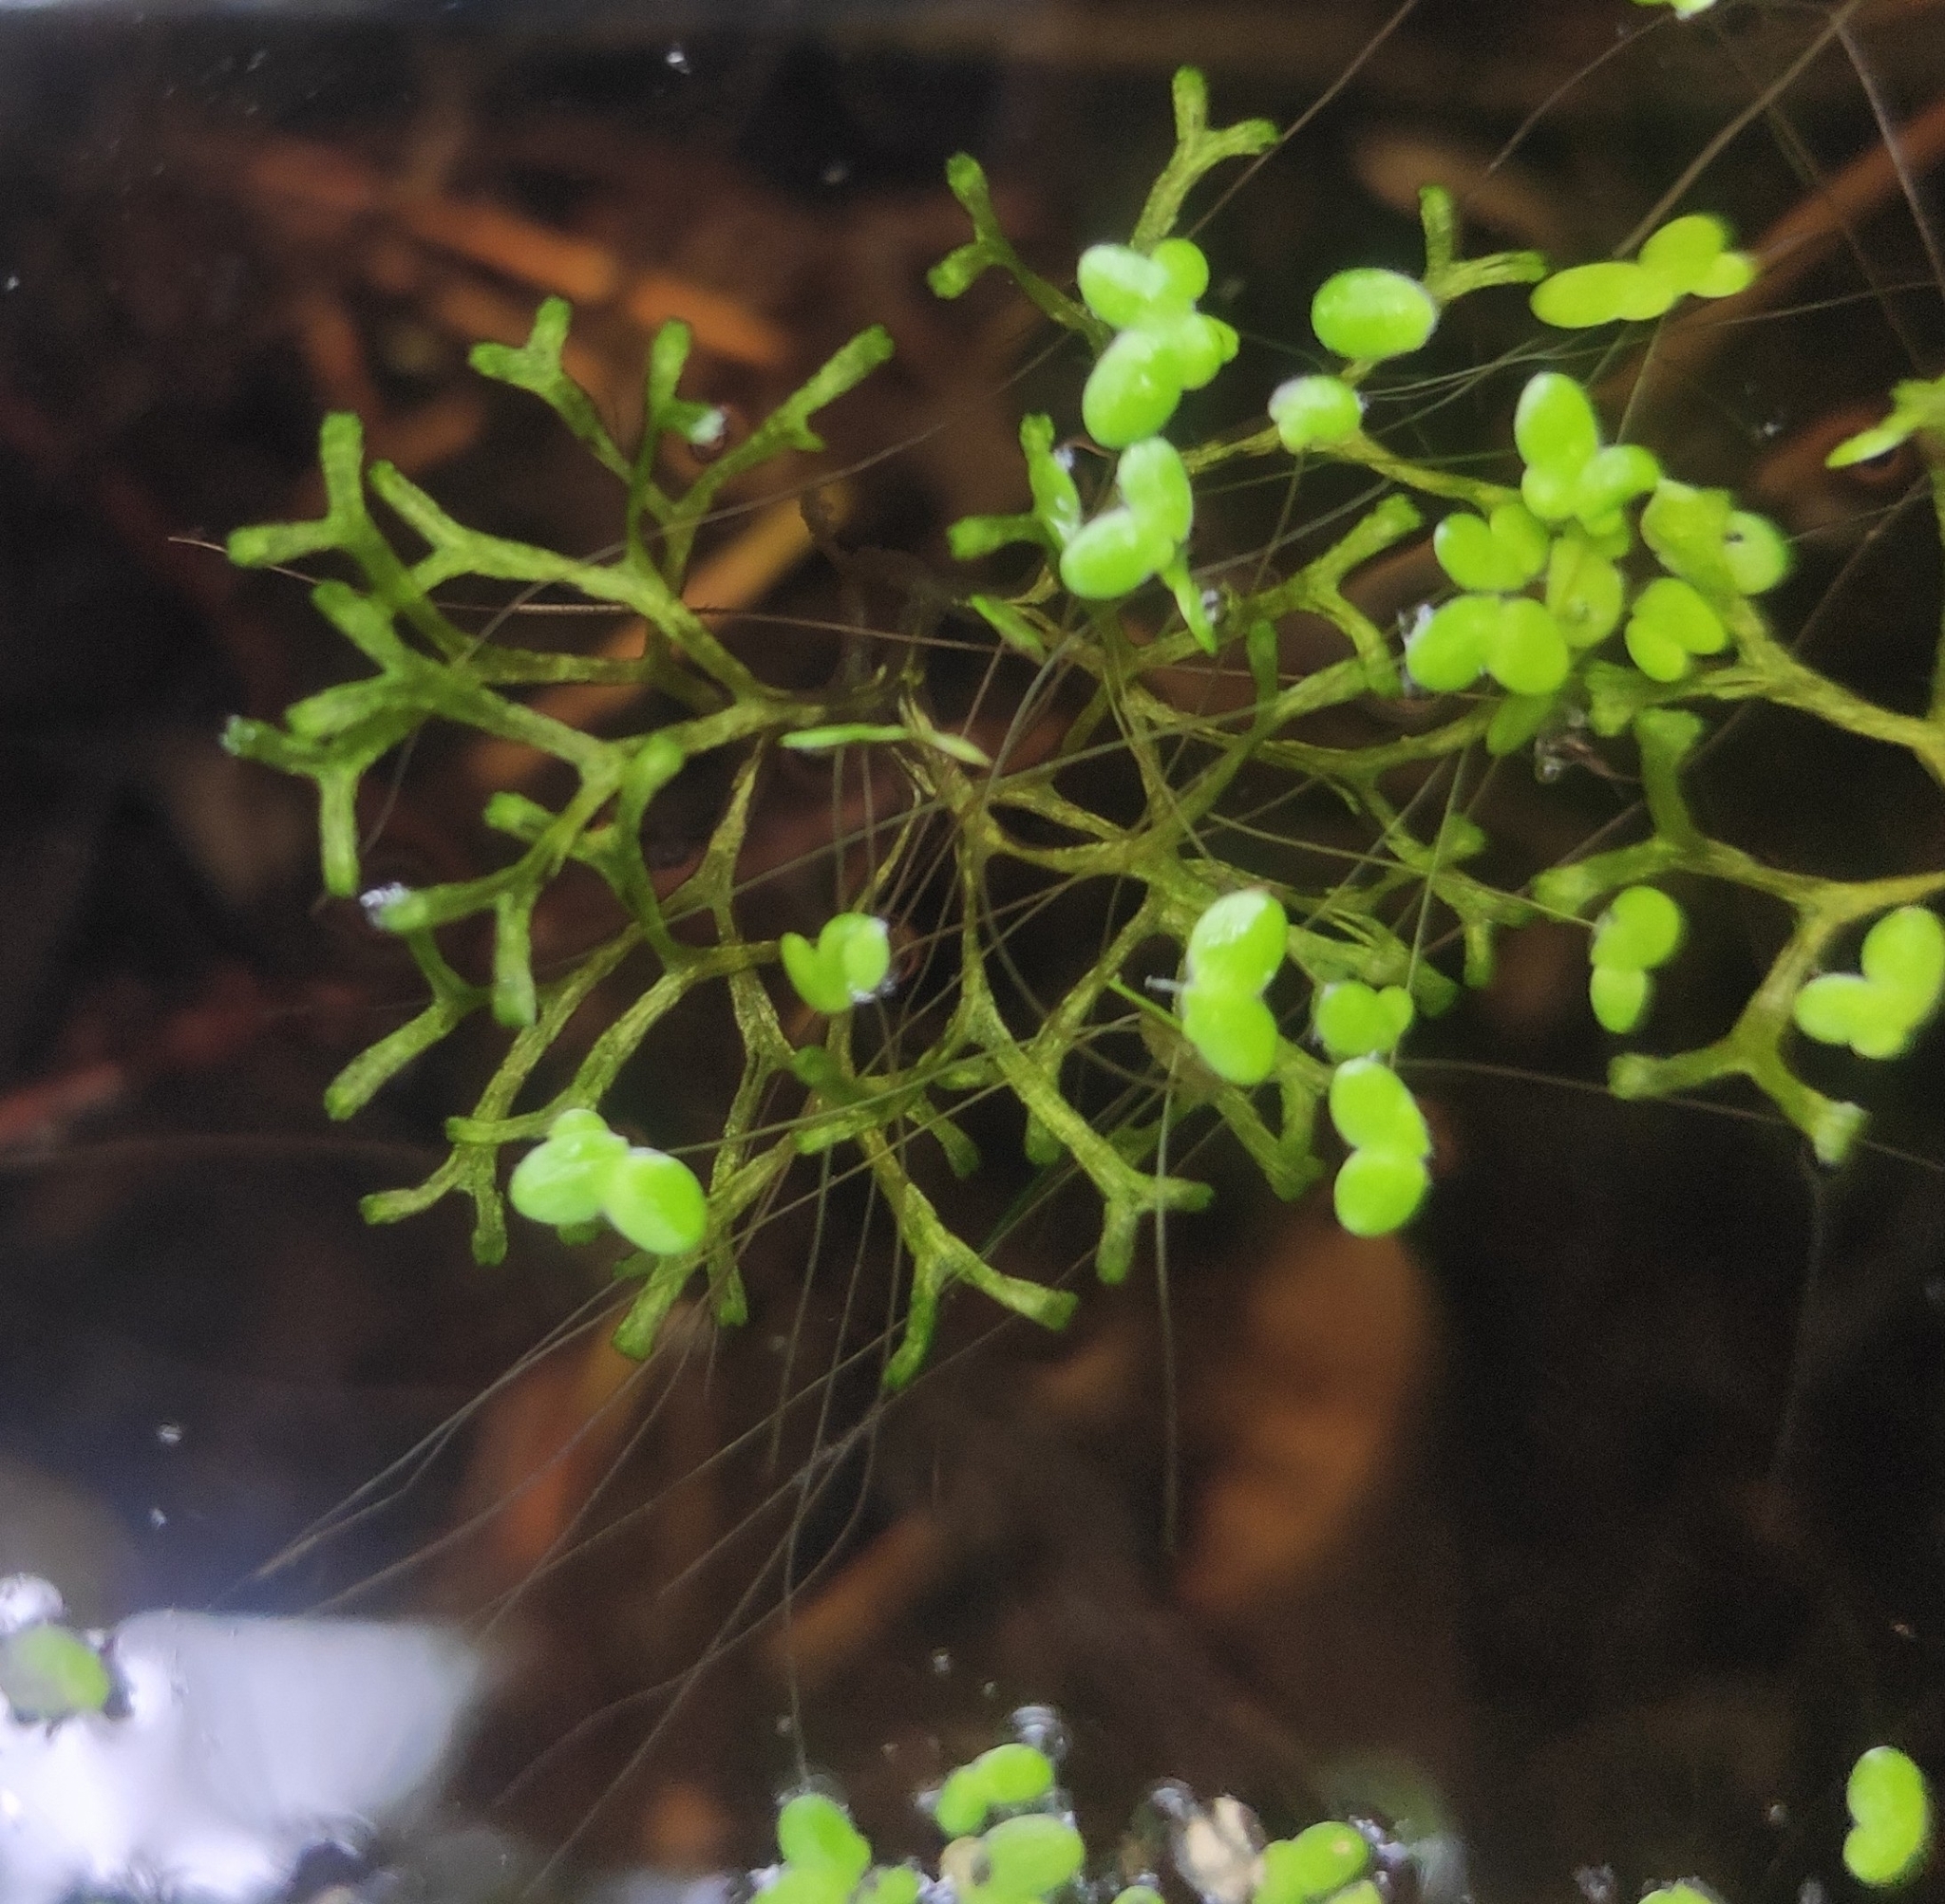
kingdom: Plantae
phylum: Marchantiophyta
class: Marchantiopsida
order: Marchantiales
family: Ricciaceae
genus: Riccia
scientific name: Riccia fluitans
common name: Floating crystalwort
